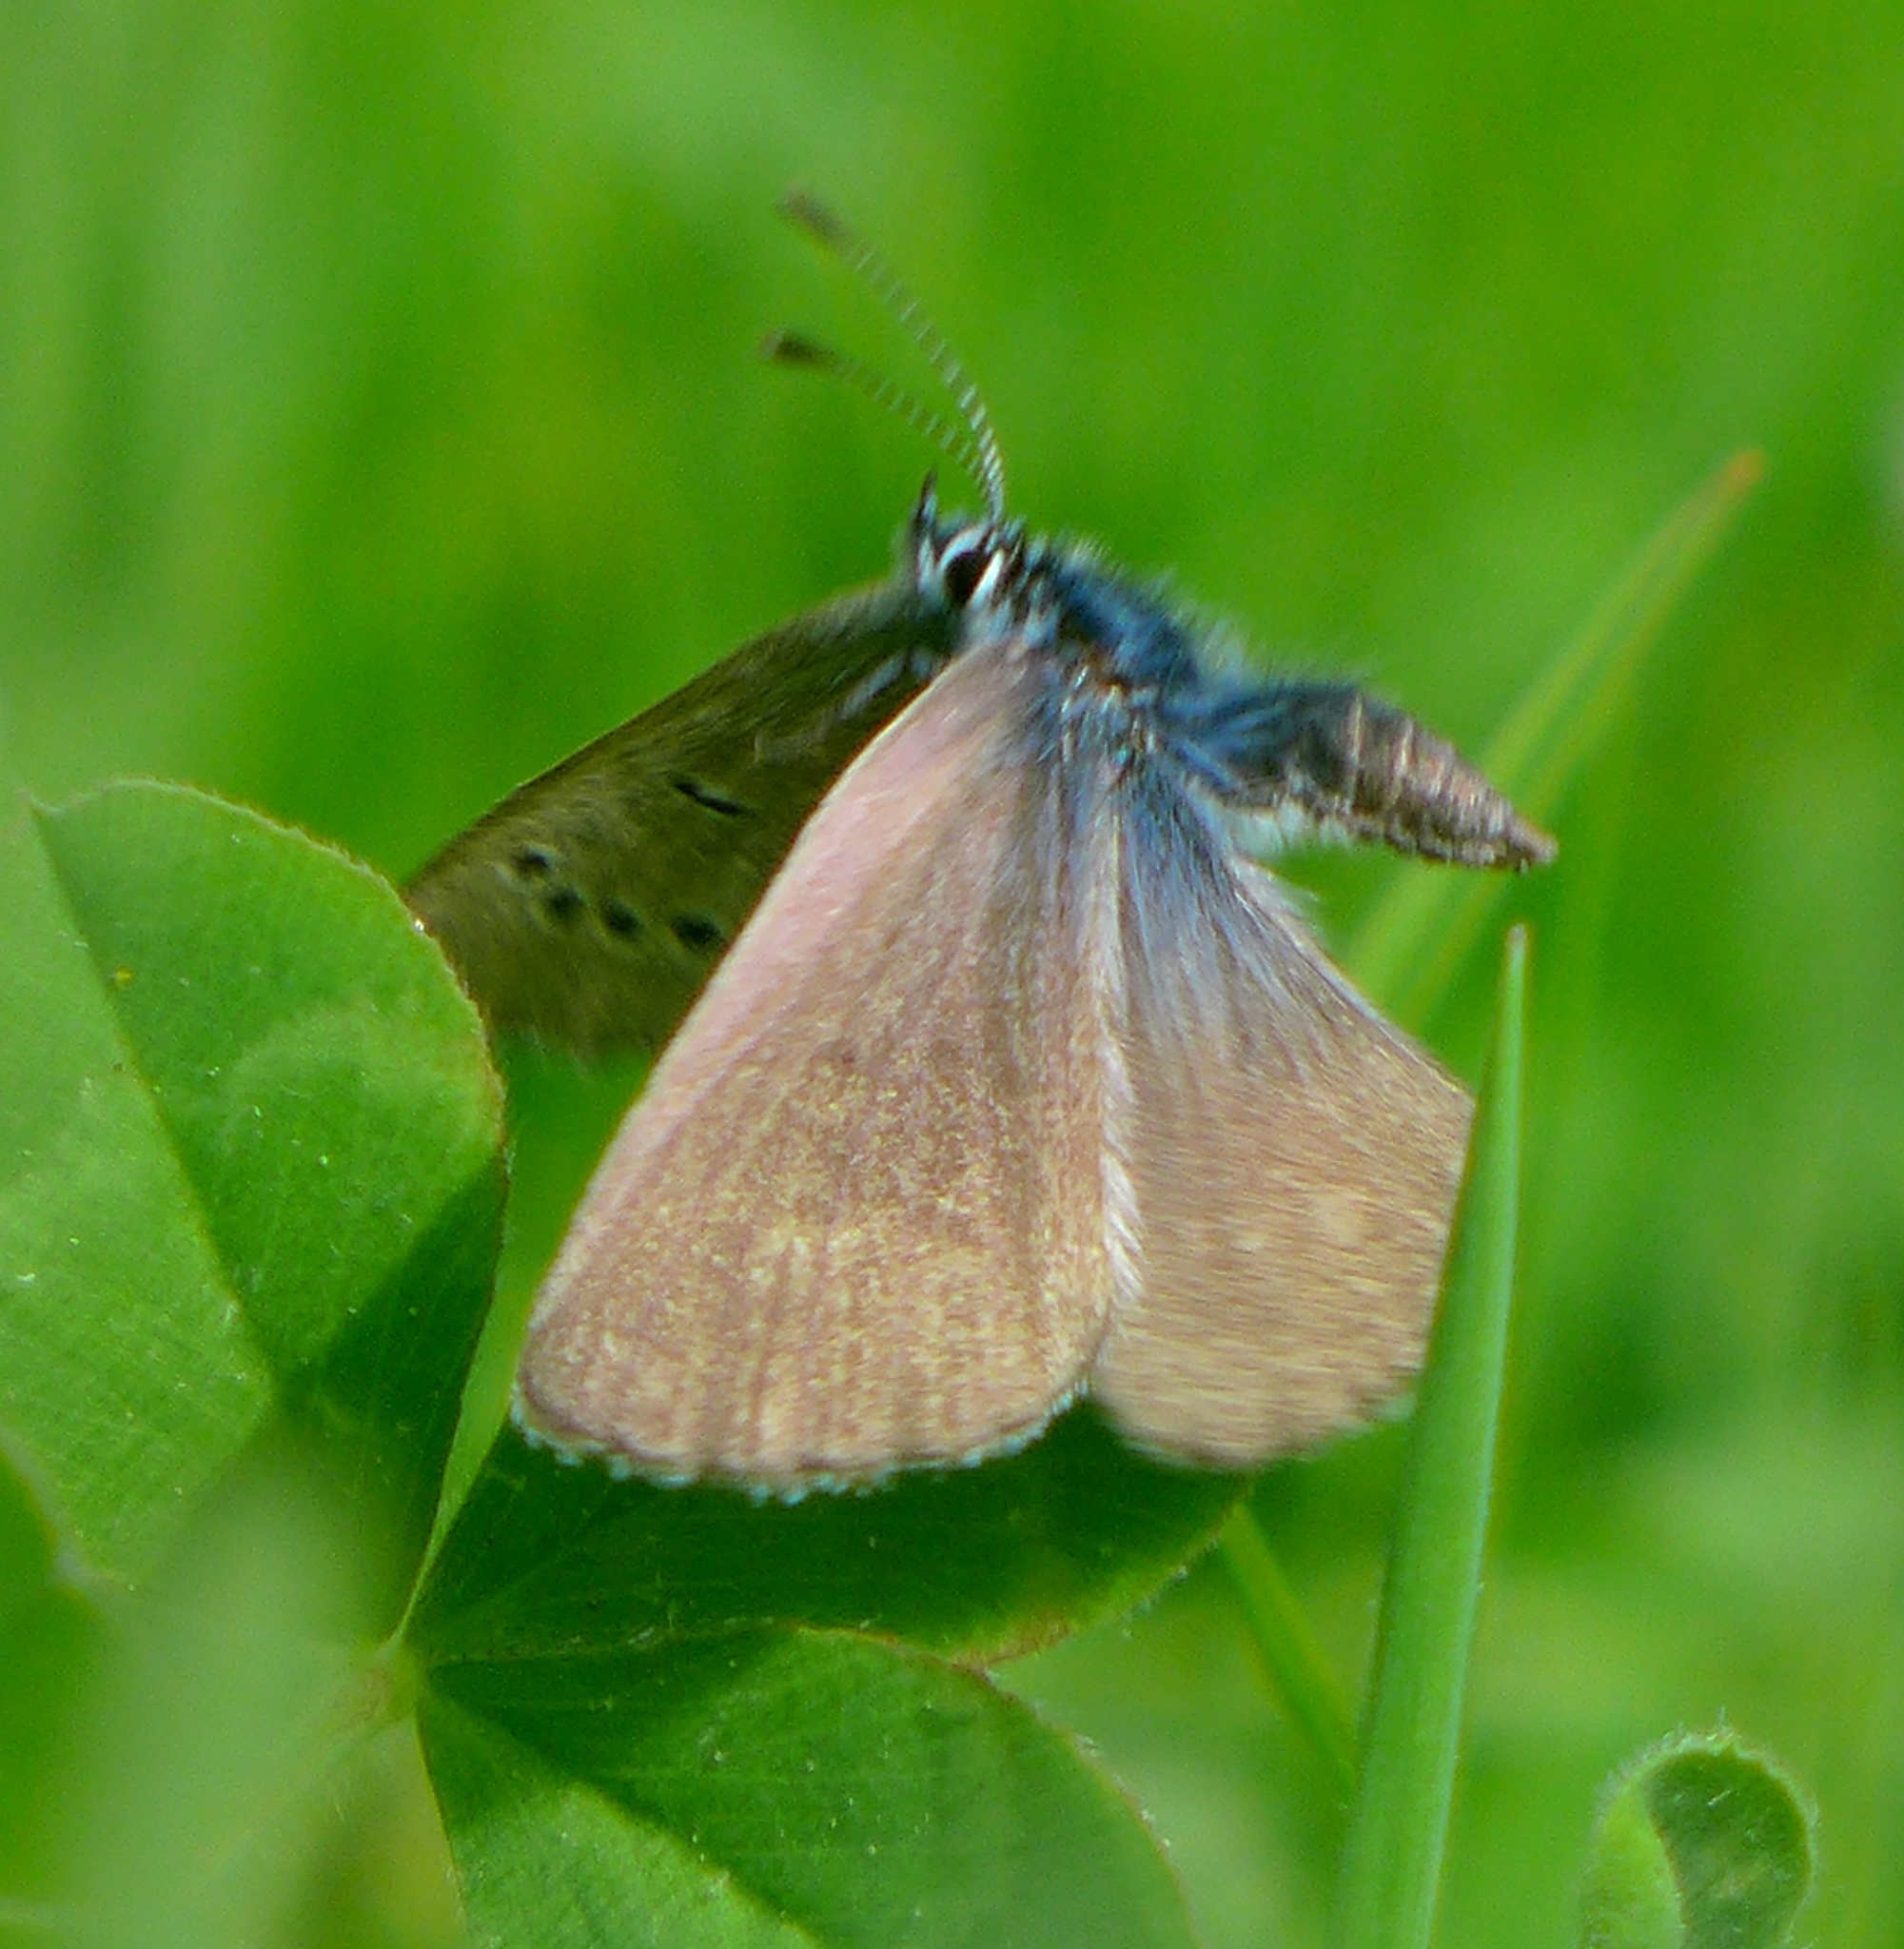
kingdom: Animalia
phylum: Arthropoda
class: Insecta
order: Lepidoptera
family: Lycaenidae
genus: Glaucopsyche
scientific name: Glaucopsyche lygdamus
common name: Silvery blue
